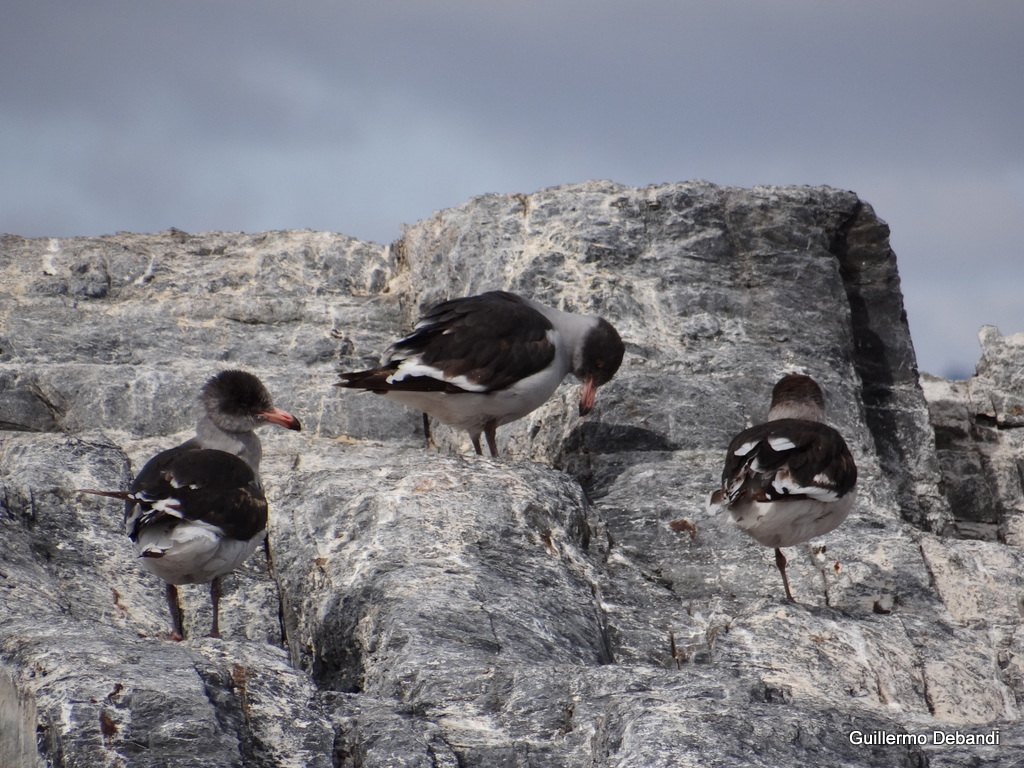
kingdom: Animalia
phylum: Chordata
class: Aves
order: Charadriiformes
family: Laridae
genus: Leucophaeus
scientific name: Leucophaeus scoresbii
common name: Dolphin gull
